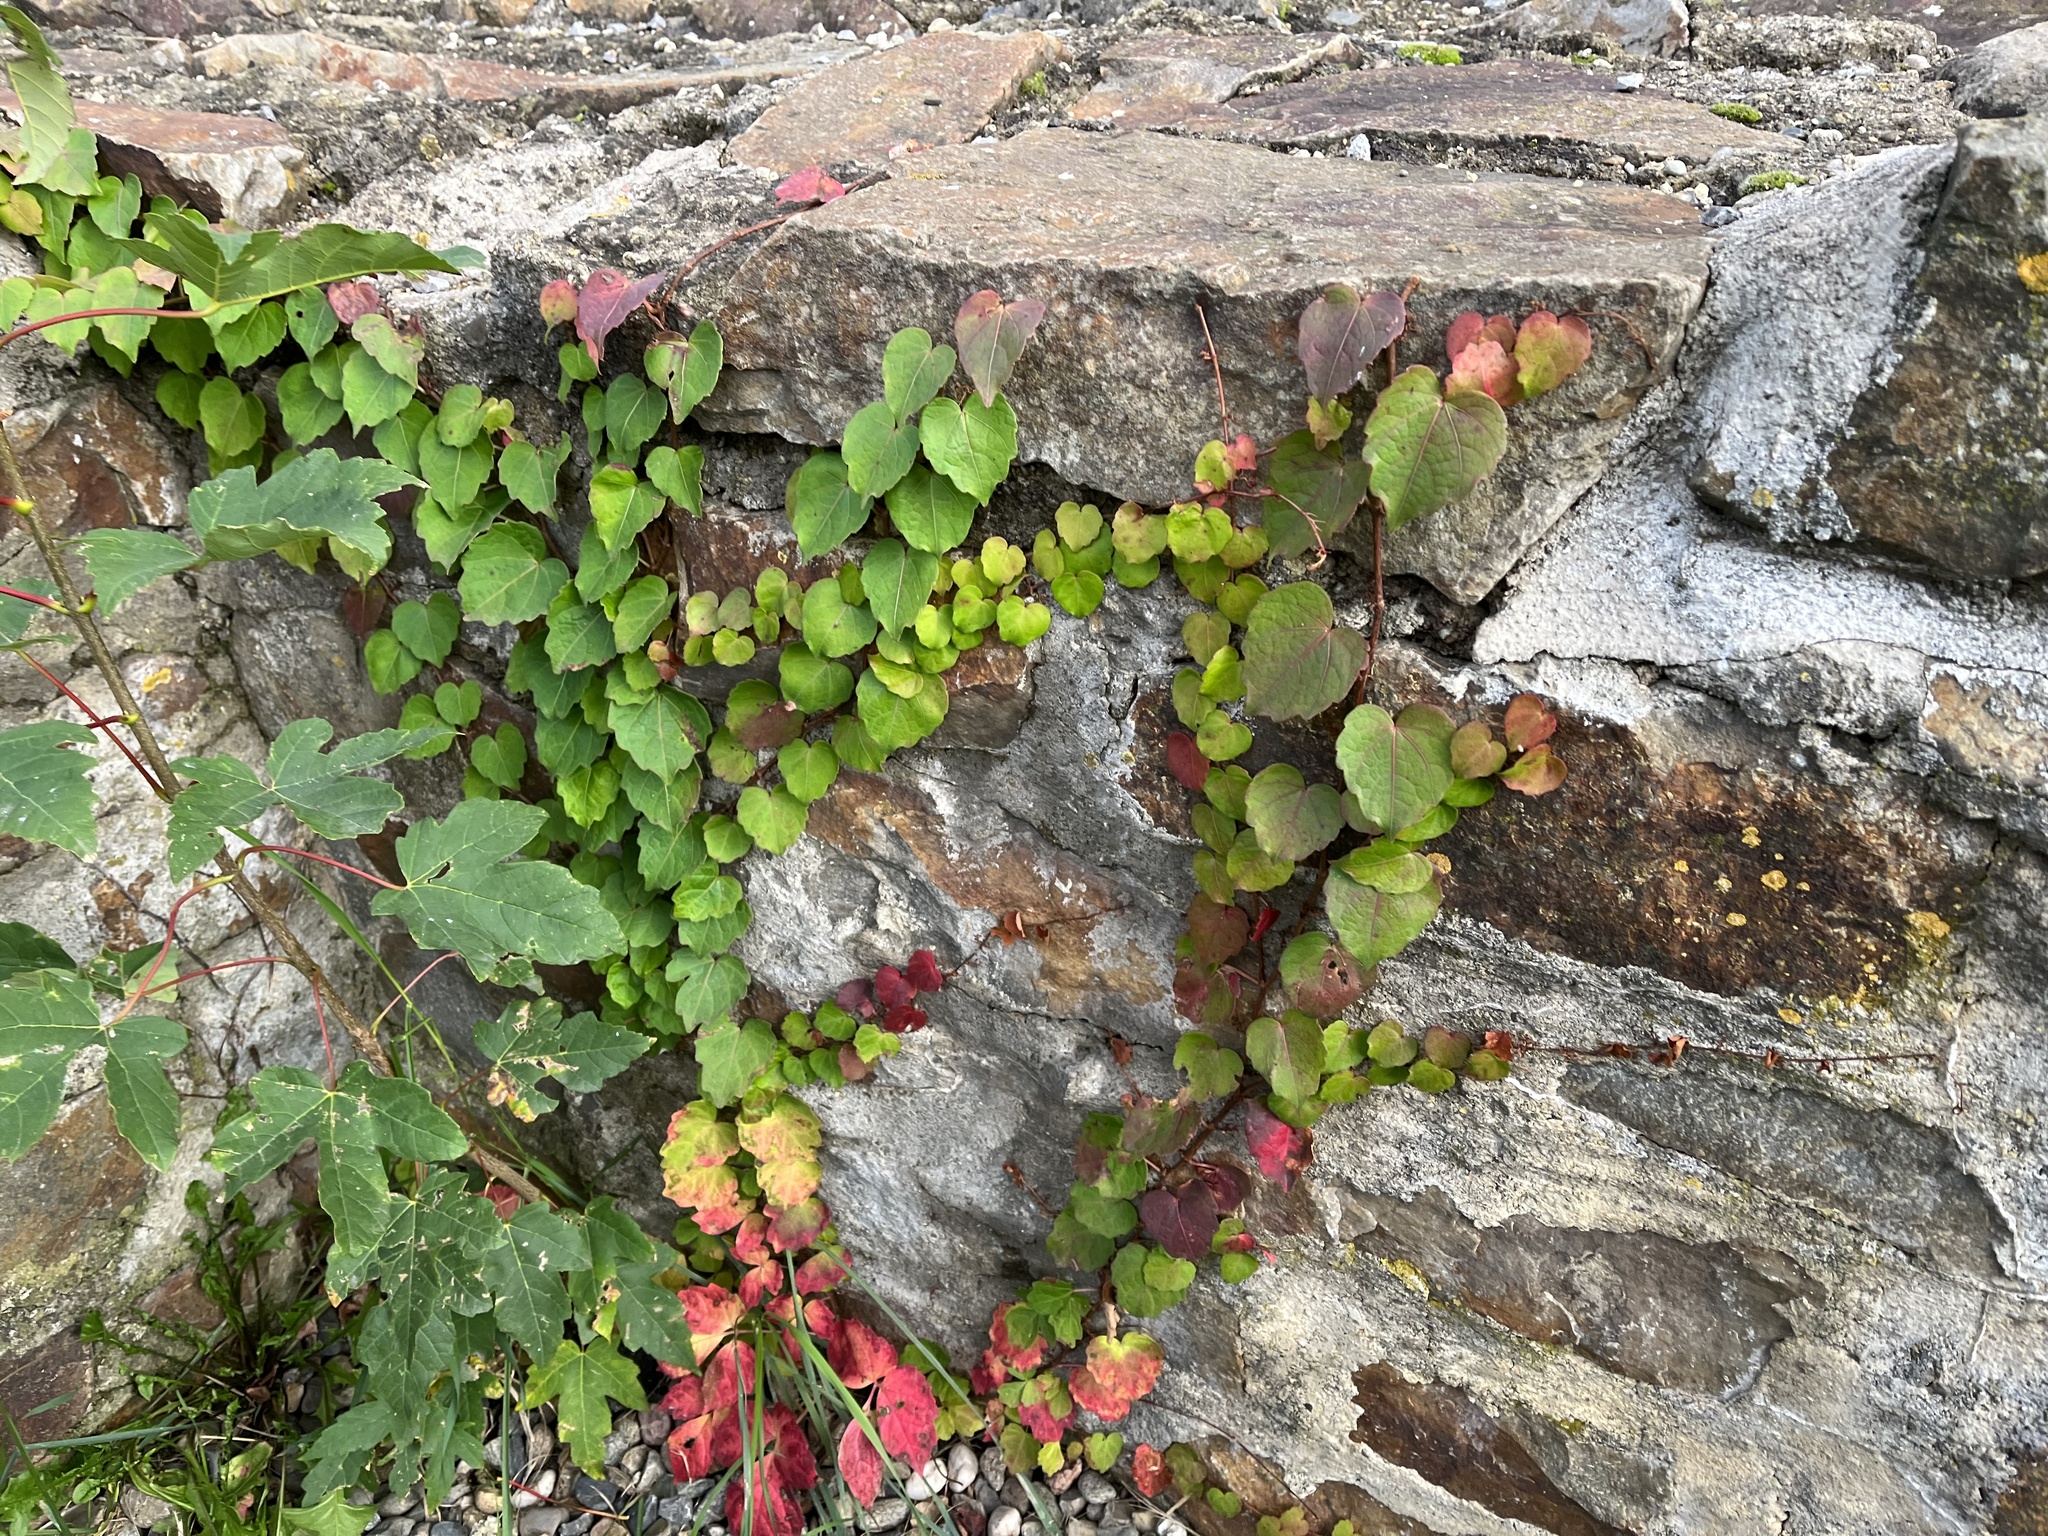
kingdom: Plantae
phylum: Tracheophyta
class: Magnoliopsida
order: Vitales
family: Vitaceae
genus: Parthenocissus
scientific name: Parthenocissus tricuspidata
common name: Boston ivy
